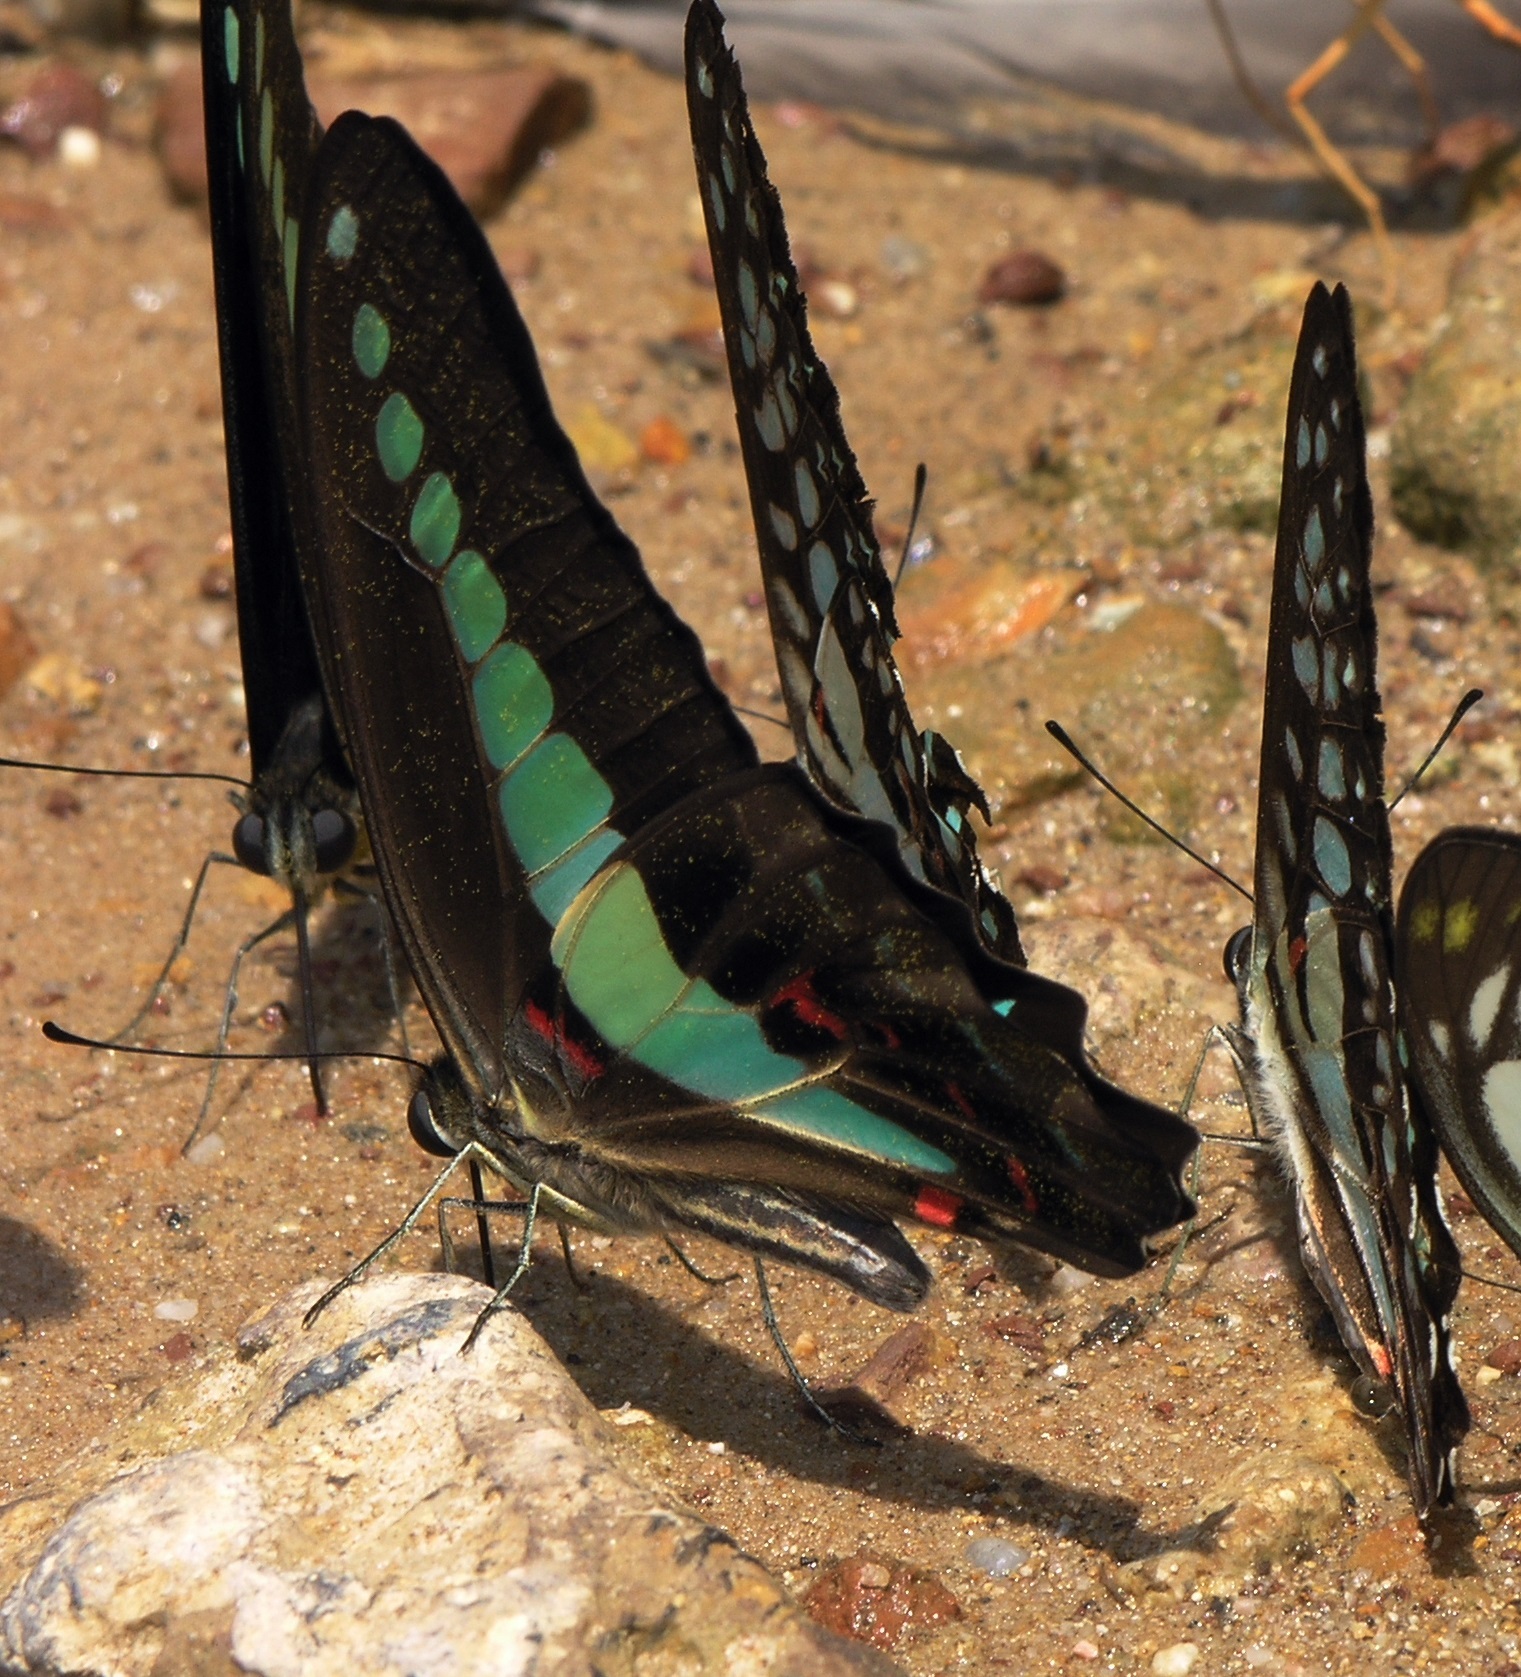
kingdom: Fungi
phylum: Ascomycota
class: Sordariomycetes
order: Microascales
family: Microascaceae
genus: Graphium
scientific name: Graphium sarpedon
